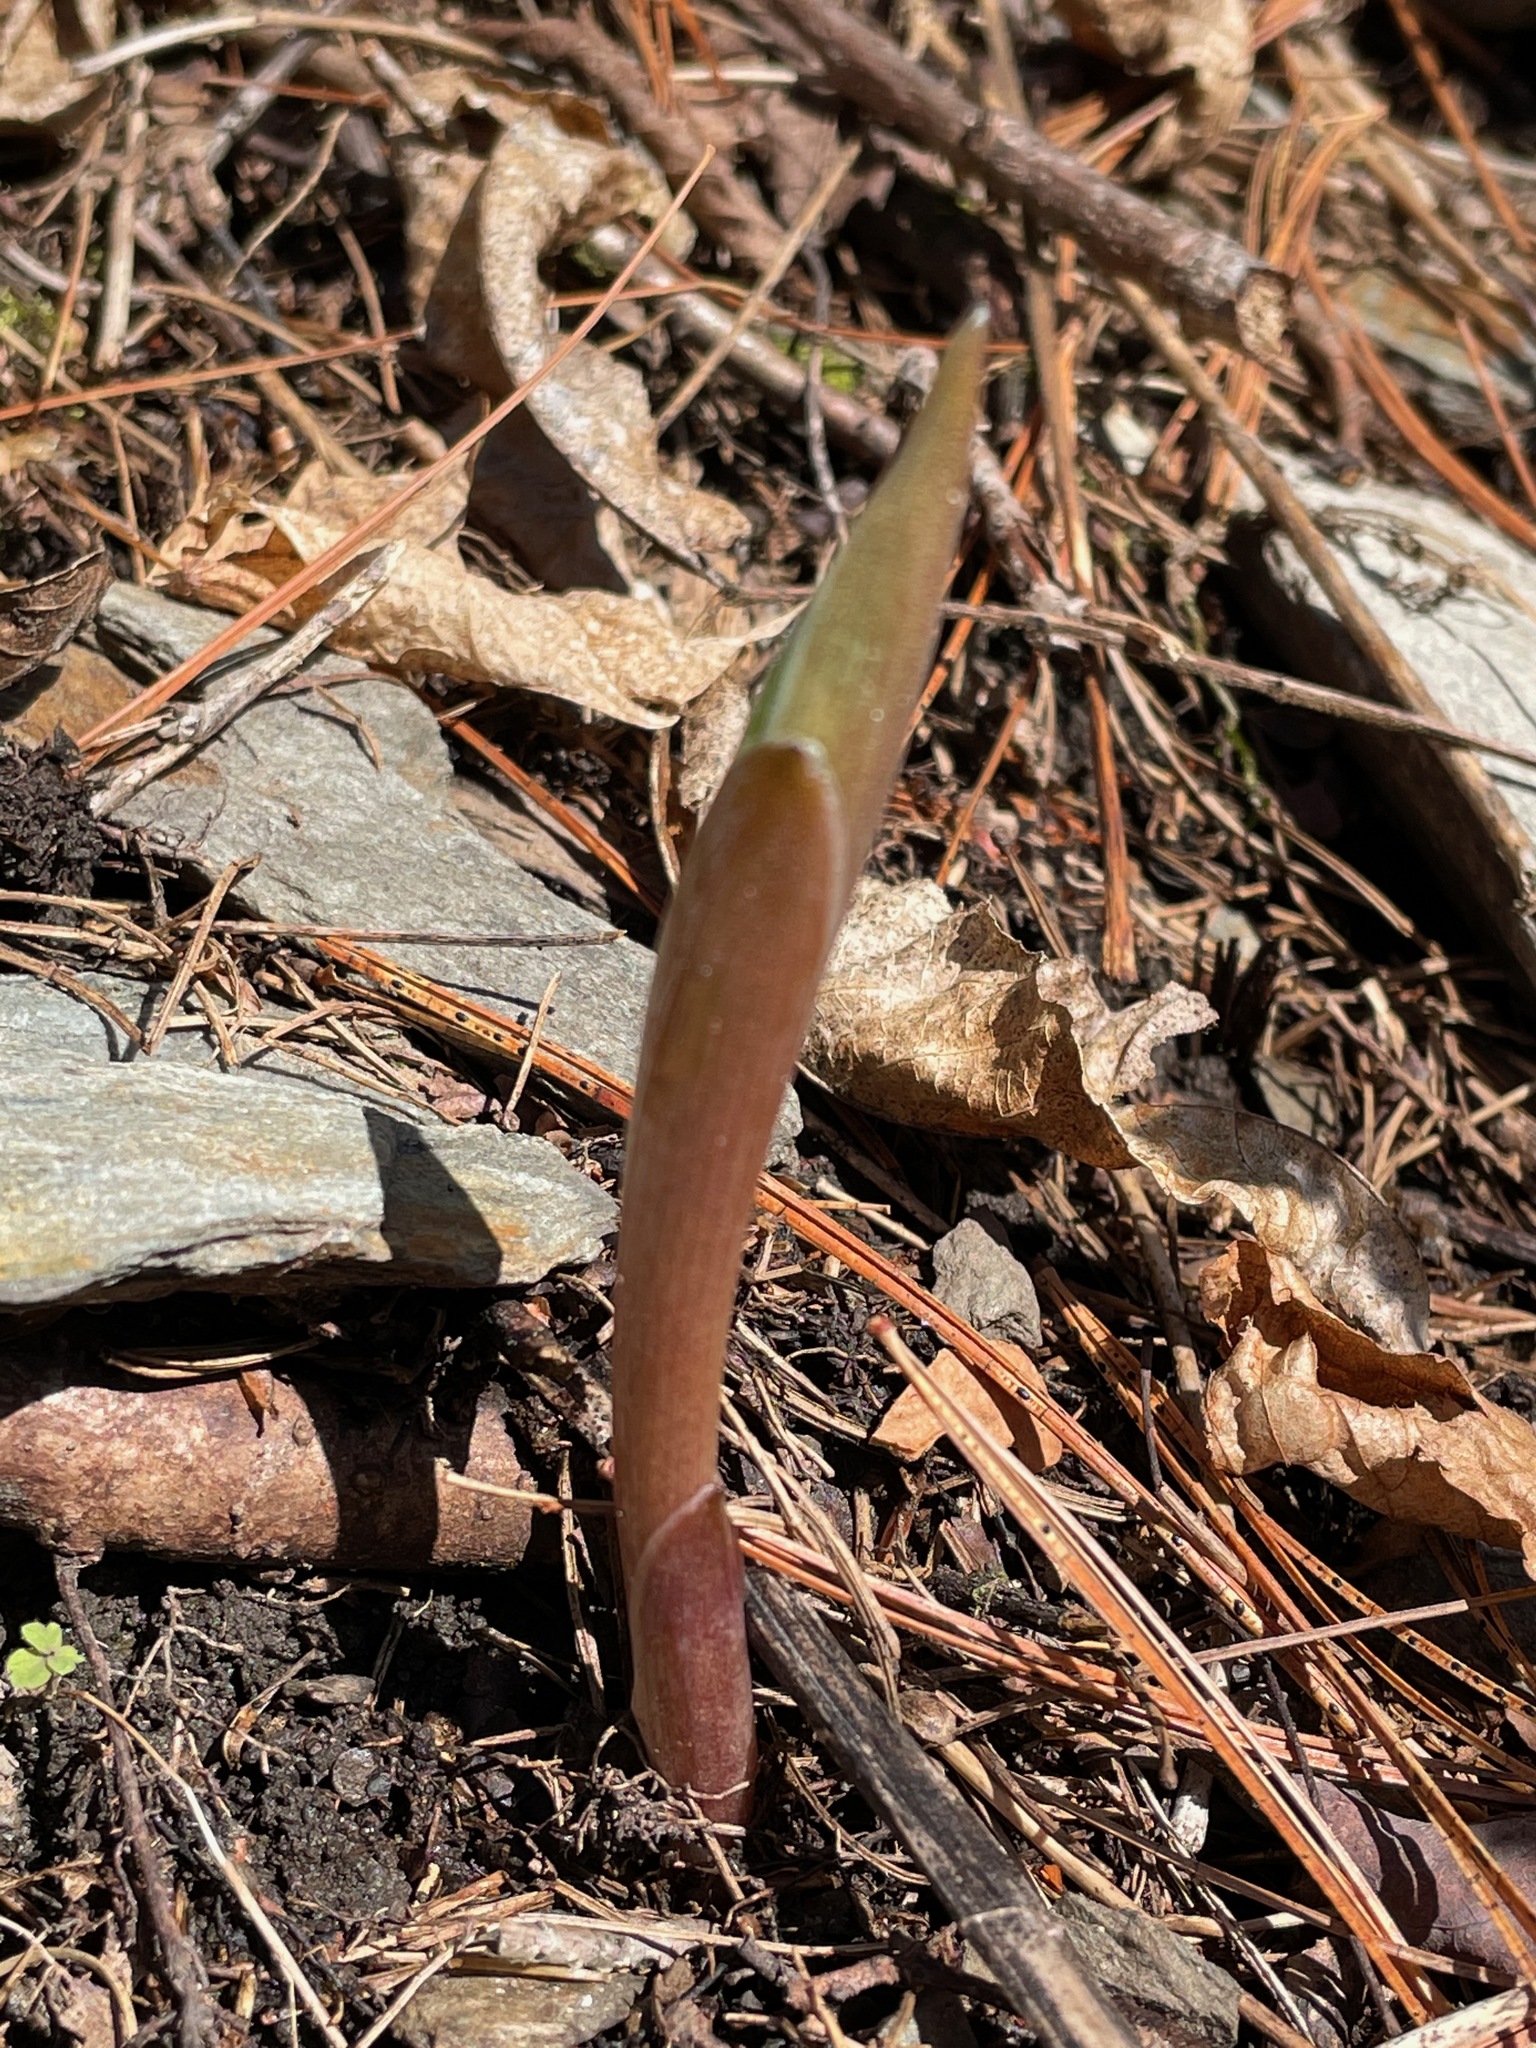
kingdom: Plantae
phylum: Tracheophyta
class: Liliopsida
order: Asparagales
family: Asparagaceae
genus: Maianthemum
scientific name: Maianthemum racemosum
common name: False spikenard
